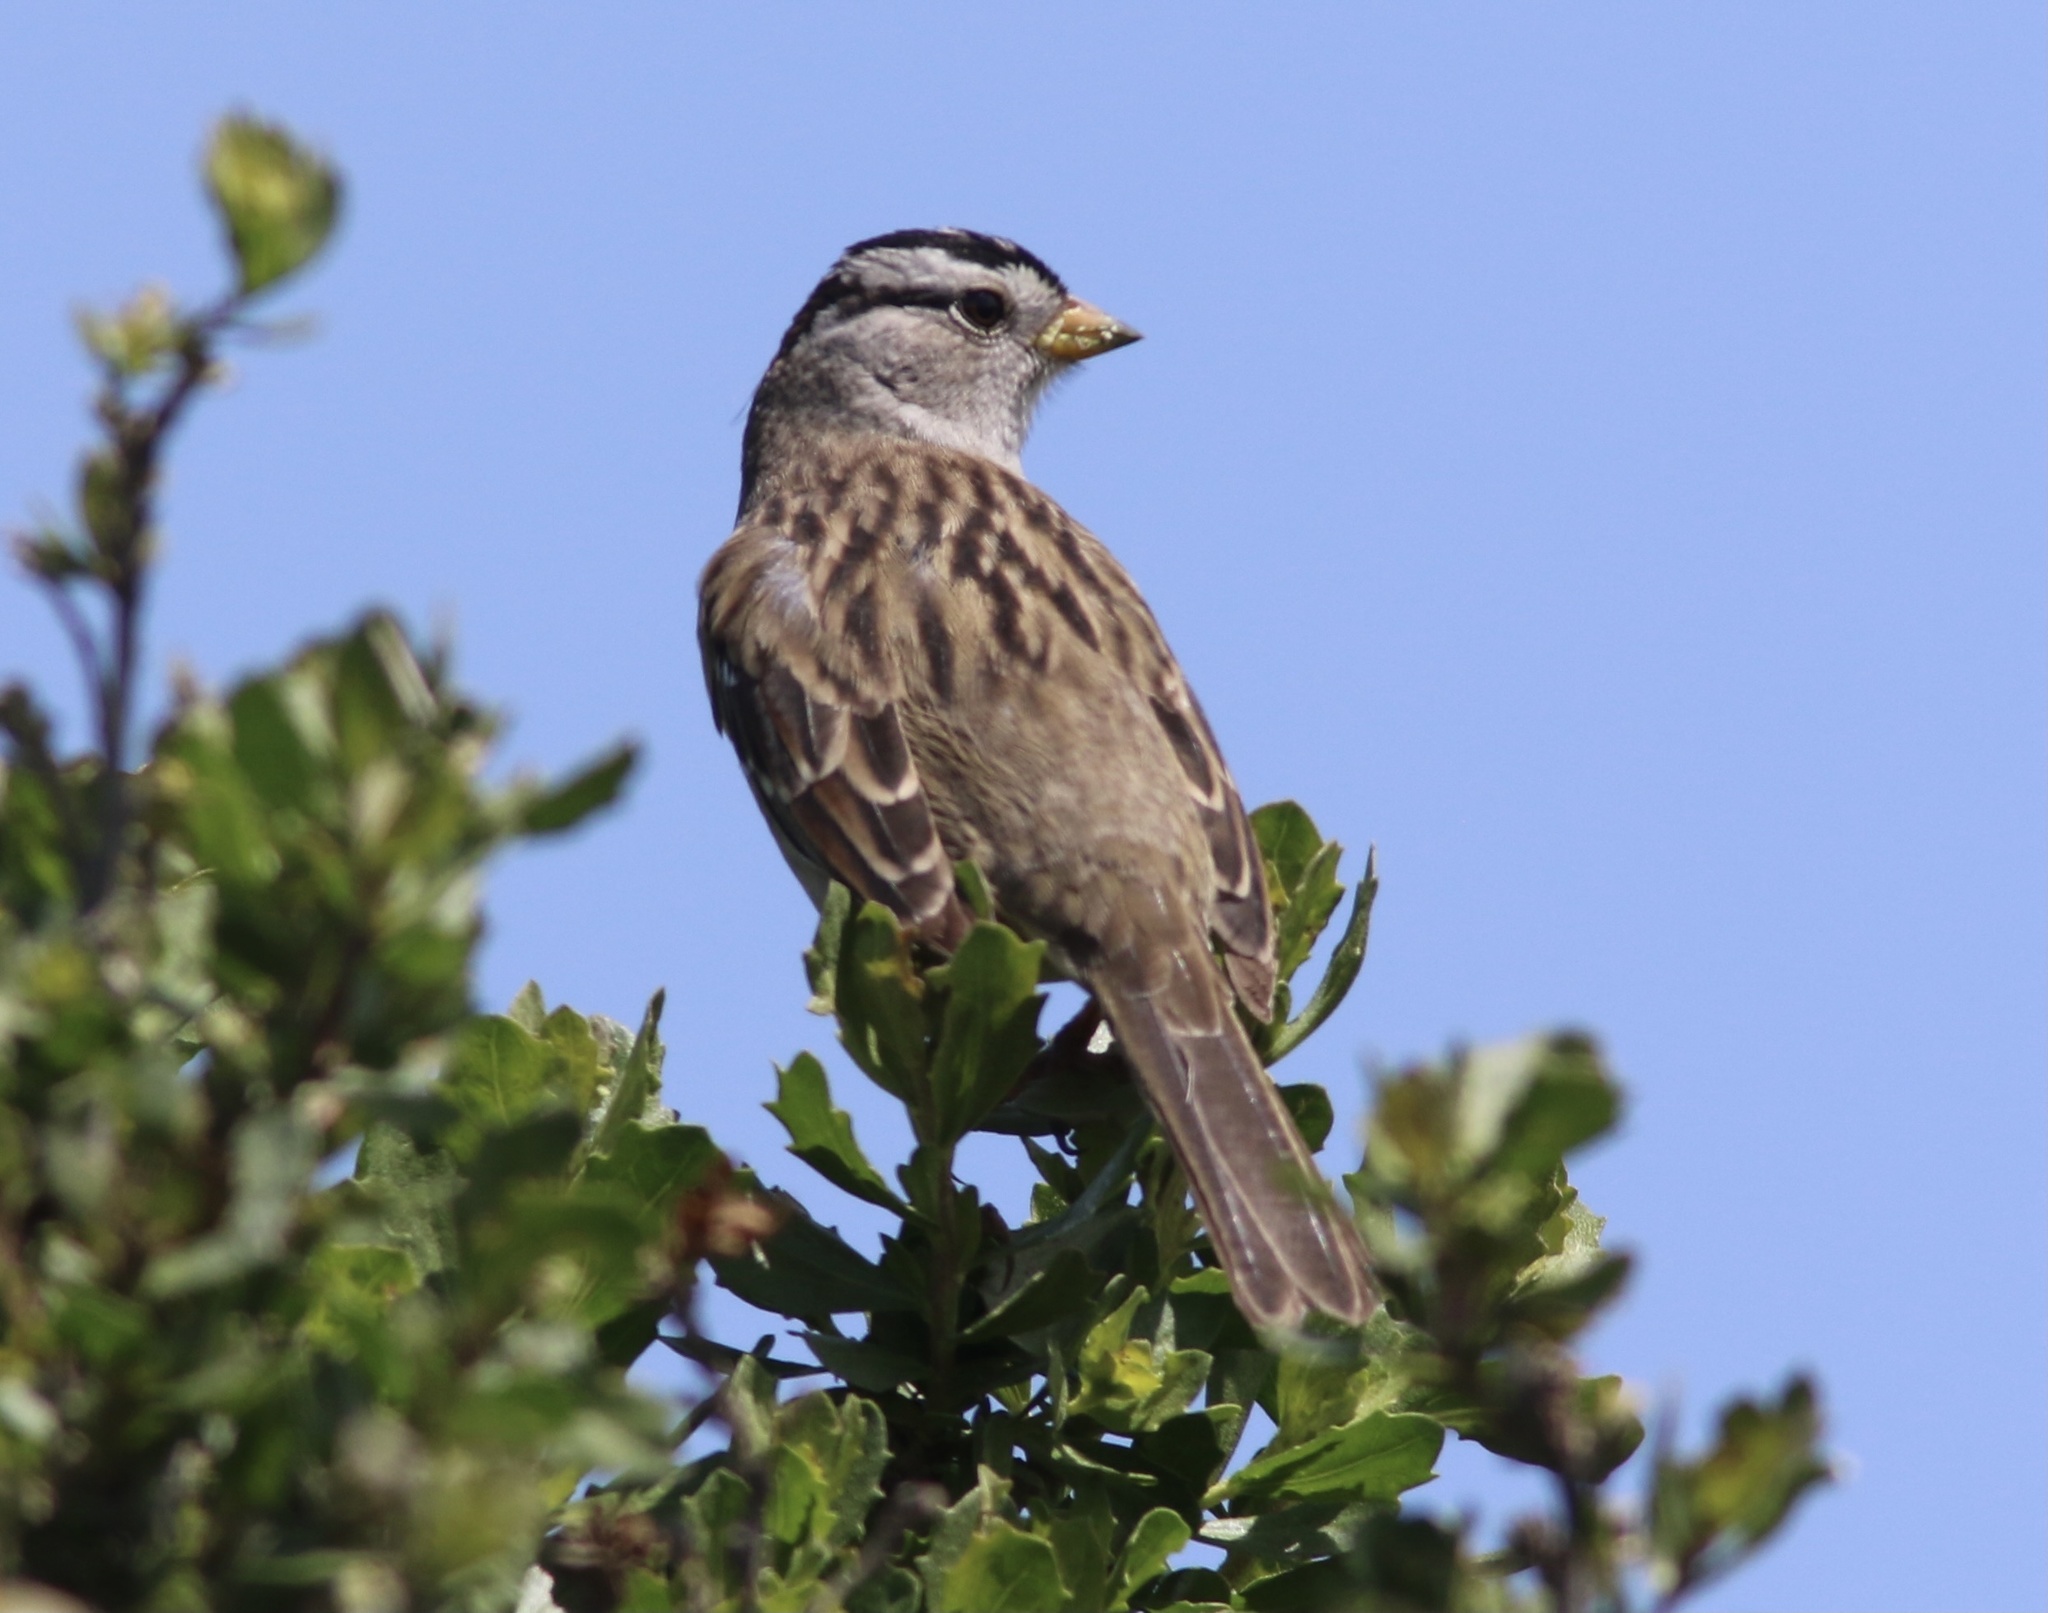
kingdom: Animalia
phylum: Chordata
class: Aves
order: Passeriformes
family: Passerellidae
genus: Zonotrichia
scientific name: Zonotrichia leucophrys
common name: White-crowned sparrow
